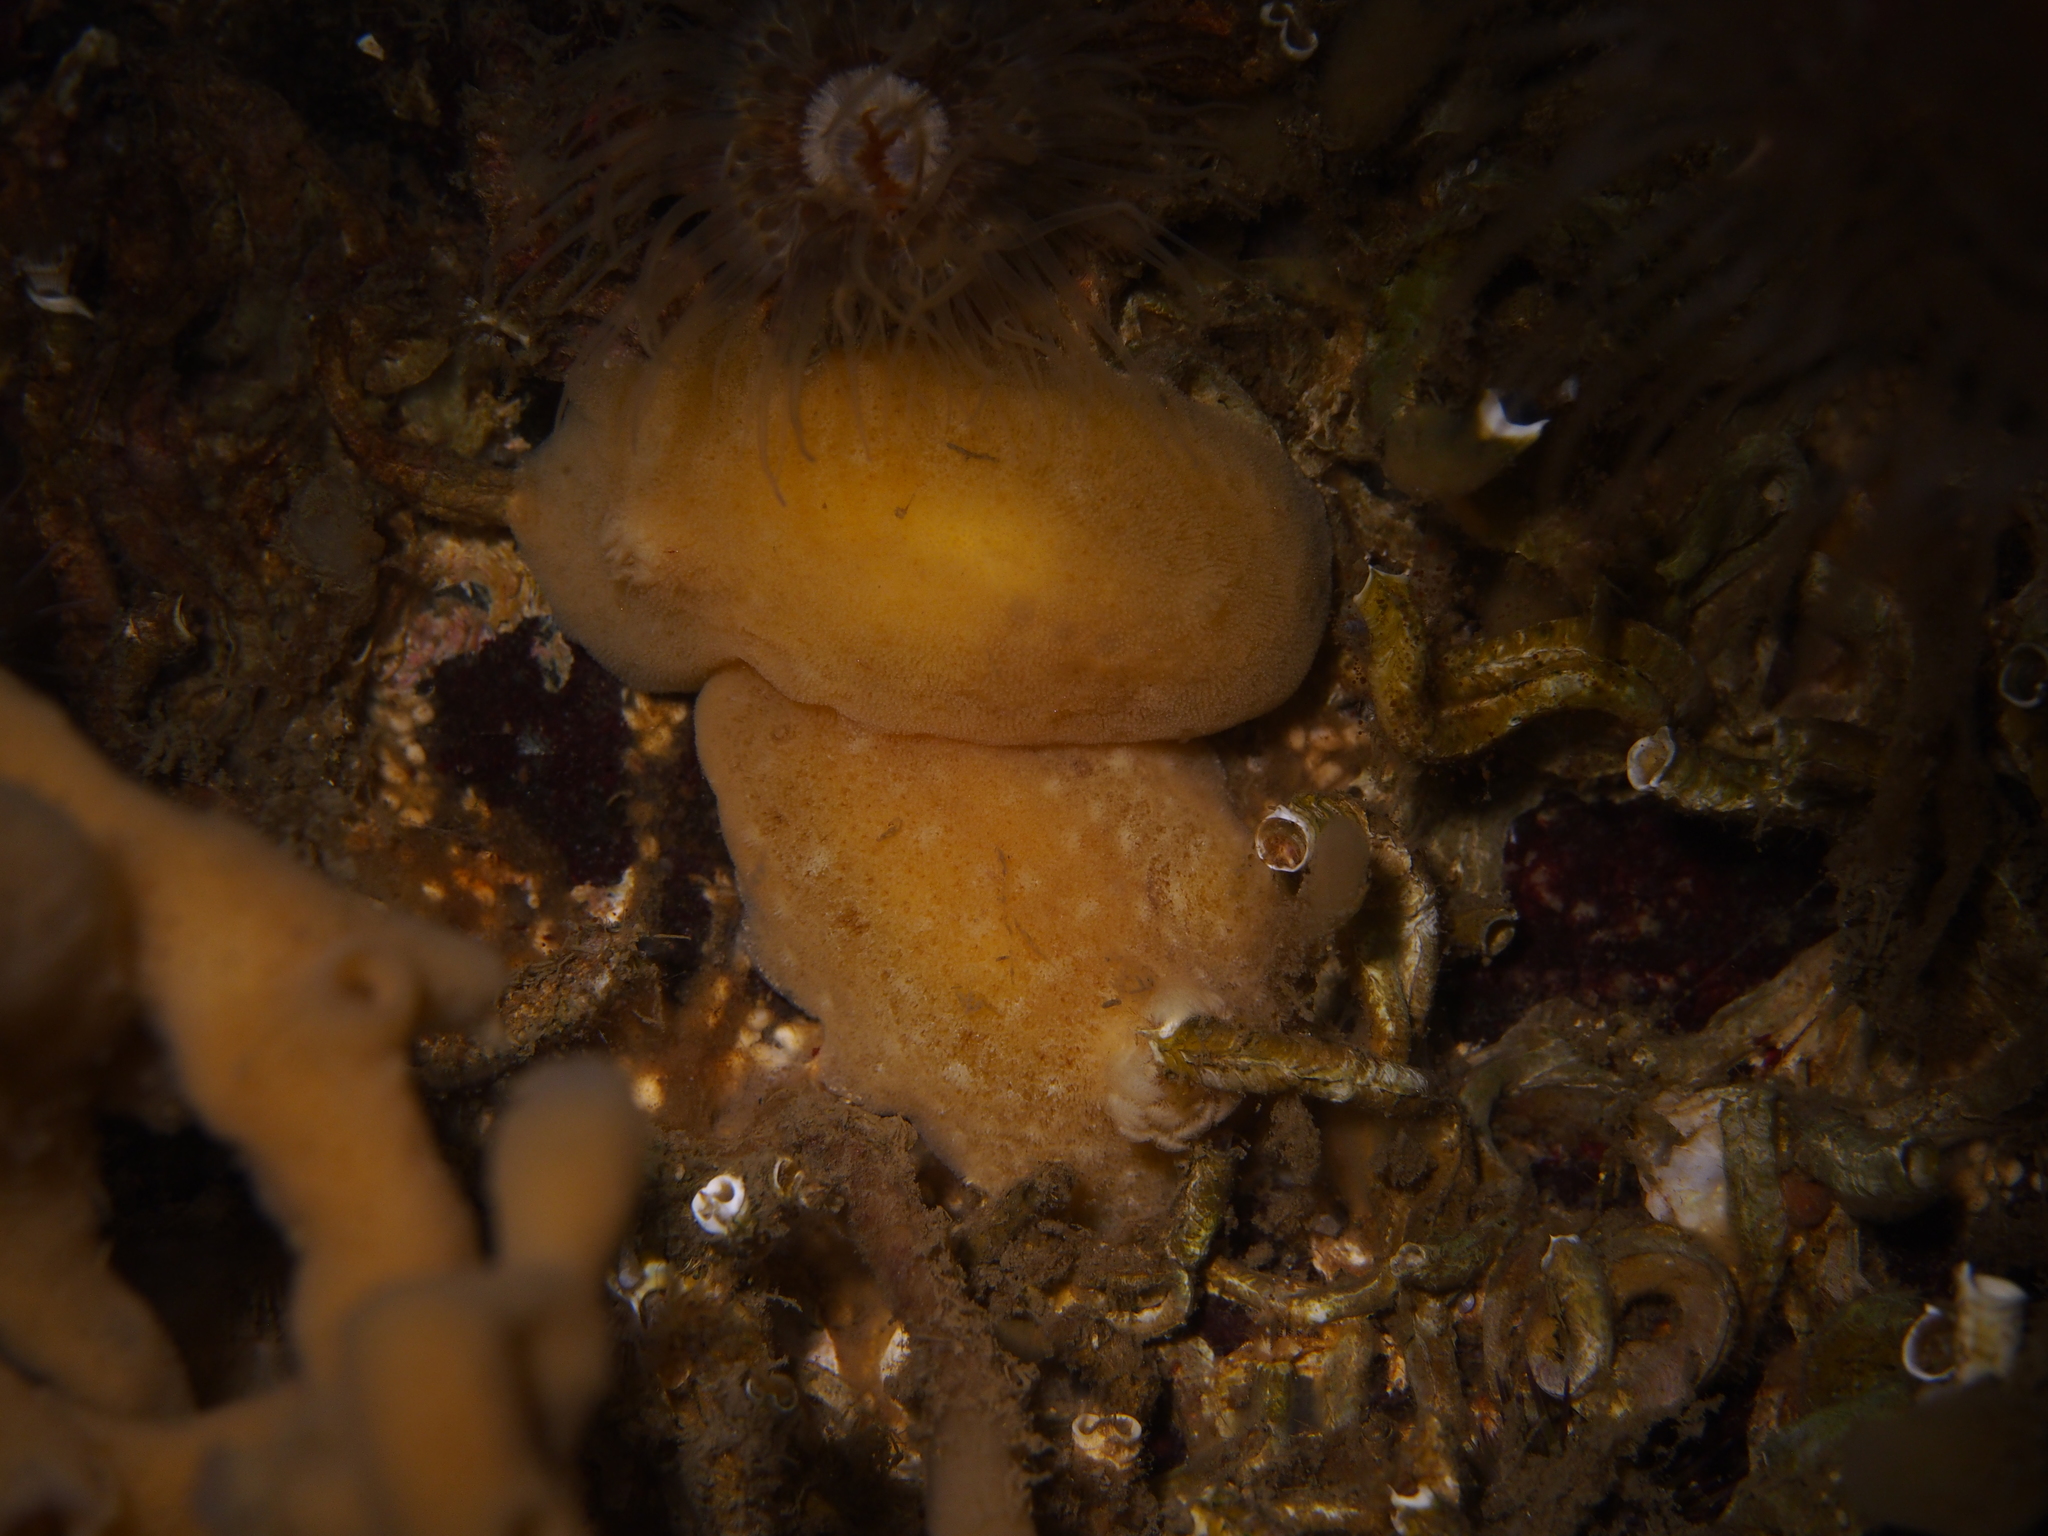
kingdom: Animalia
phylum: Mollusca
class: Gastropoda
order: Nudibranchia
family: Discodorididae
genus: Jorunna
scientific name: Jorunna tomentosa
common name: Grey sea slug
